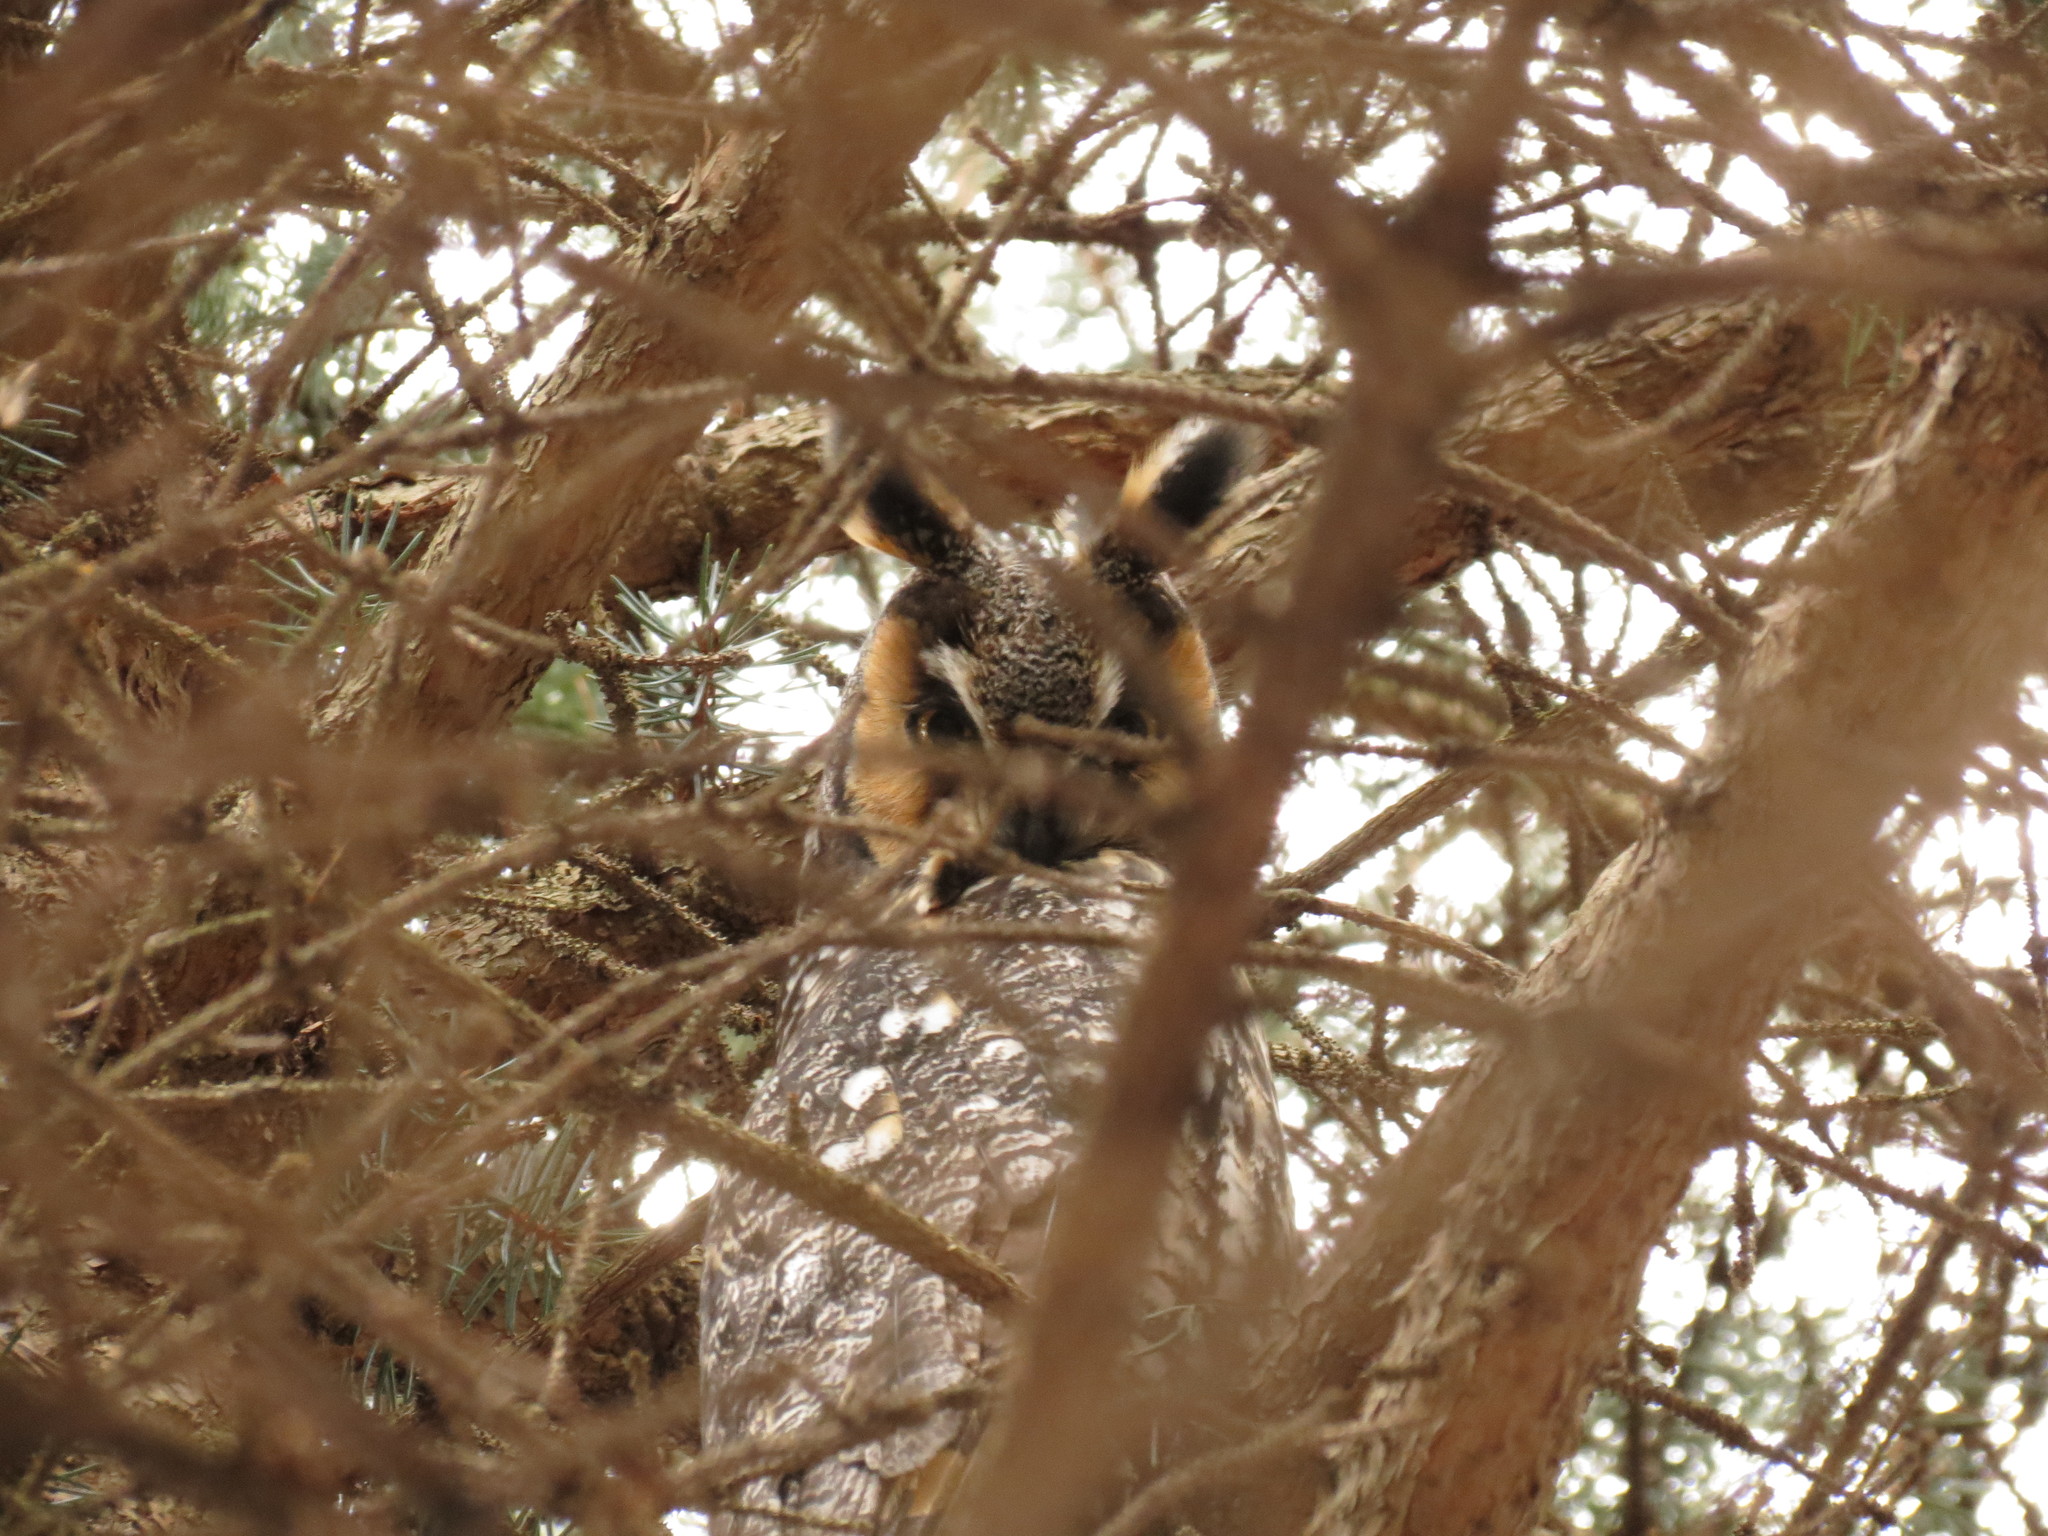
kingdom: Animalia
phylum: Chordata
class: Aves
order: Strigiformes
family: Strigidae
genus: Asio
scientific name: Asio otus
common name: Long-eared owl
